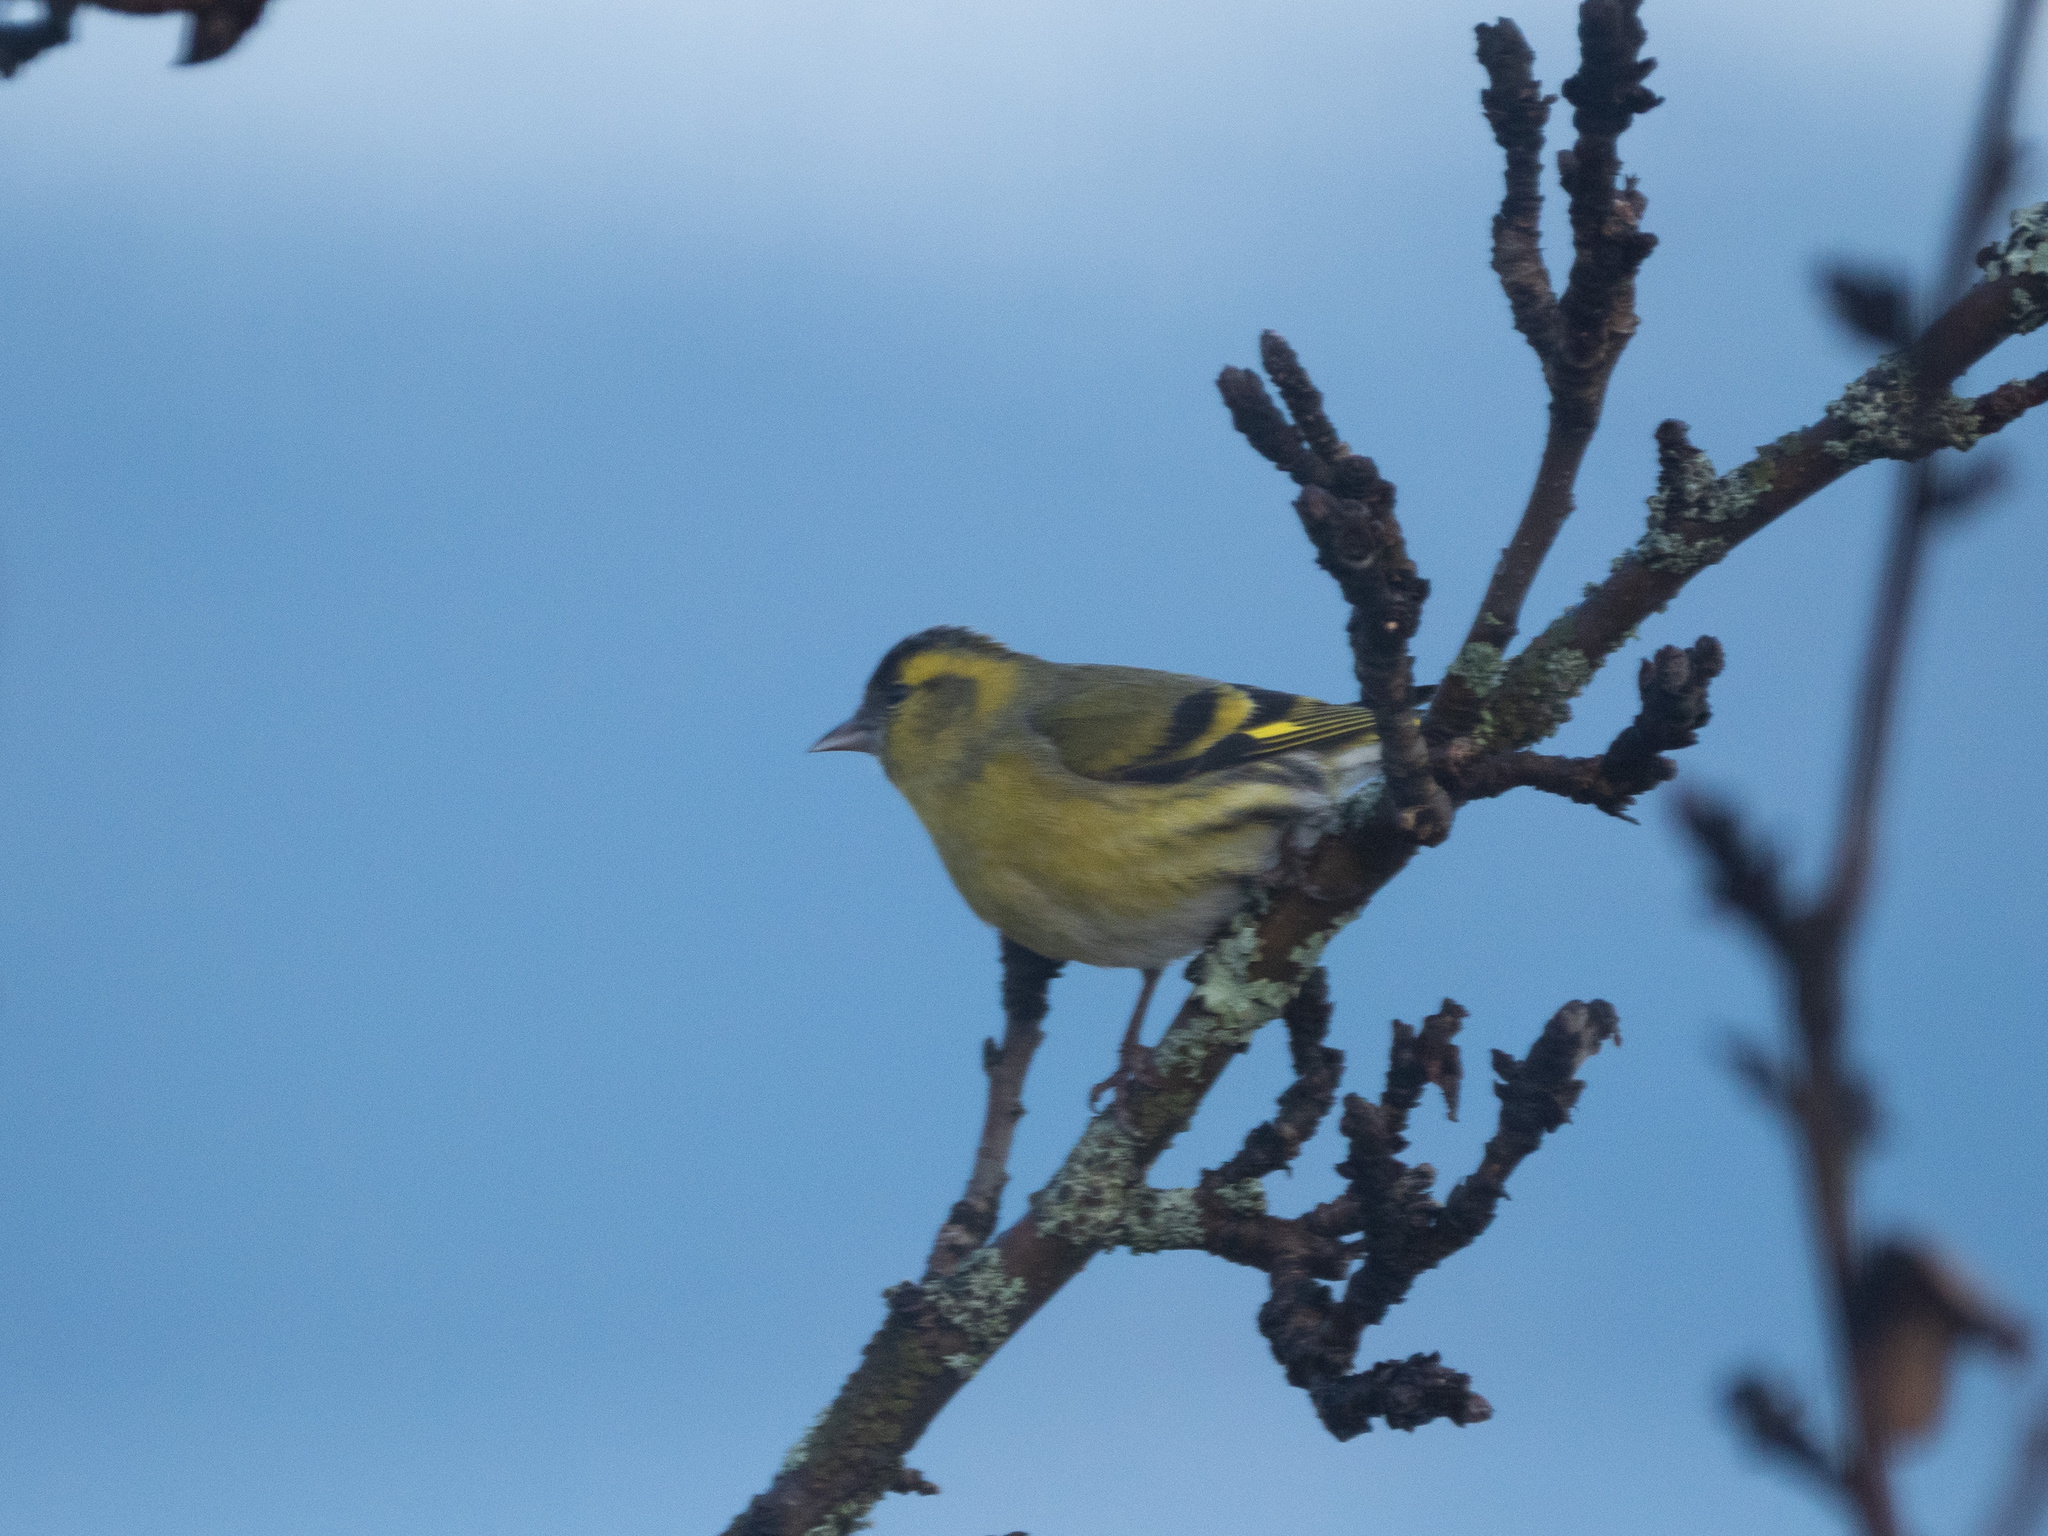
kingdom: Animalia
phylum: Chordata
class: Aves
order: Passeriformes
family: Fringillidae
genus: Spinus
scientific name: Spinus spinus
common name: Eurasian siskin
